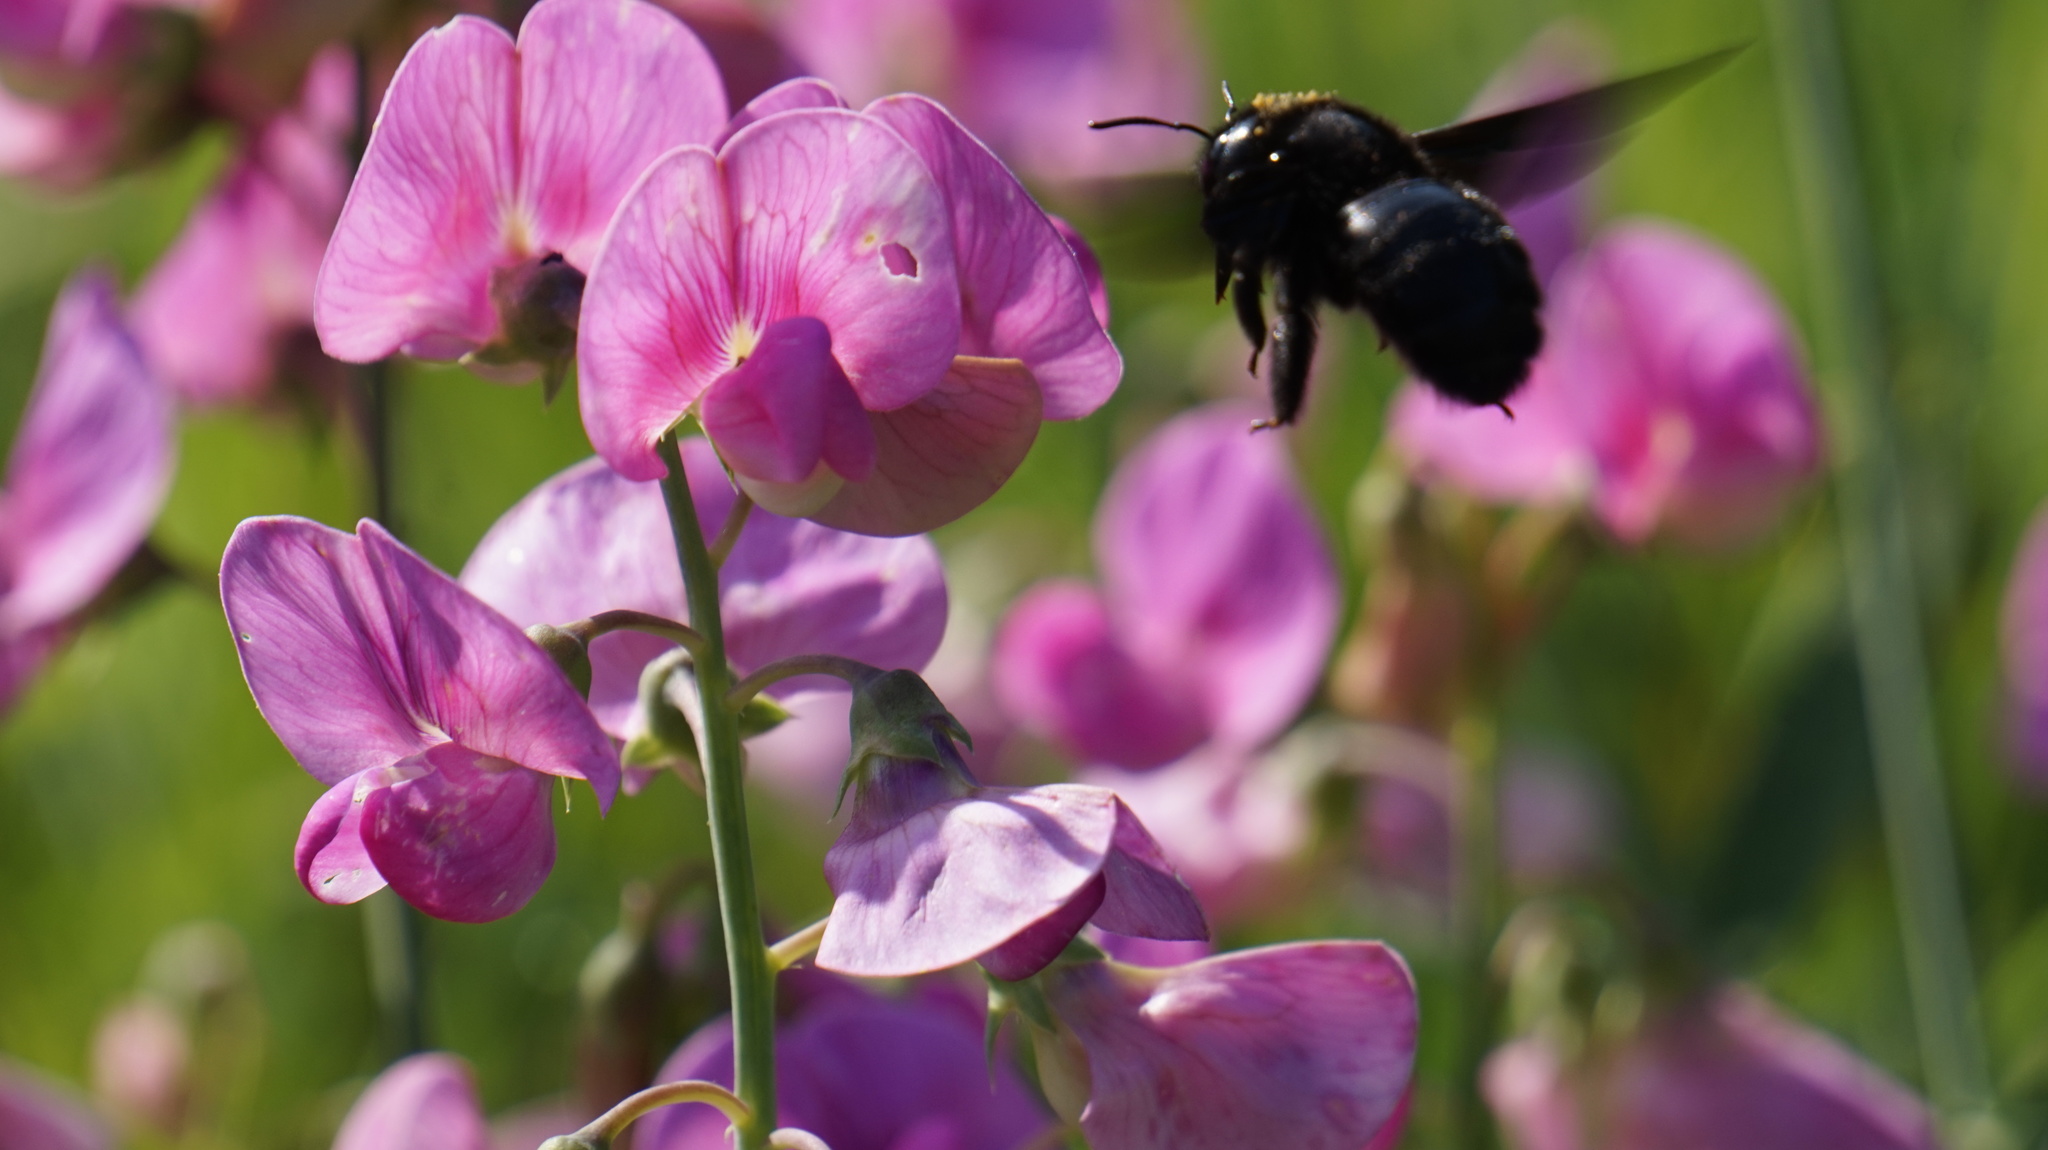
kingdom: Animalia
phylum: Arthropoda
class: Insecta
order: Hymenoptera
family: Apidae
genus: Xylocopa
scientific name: Xylocopa violacea
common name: Violet carpenter bee
